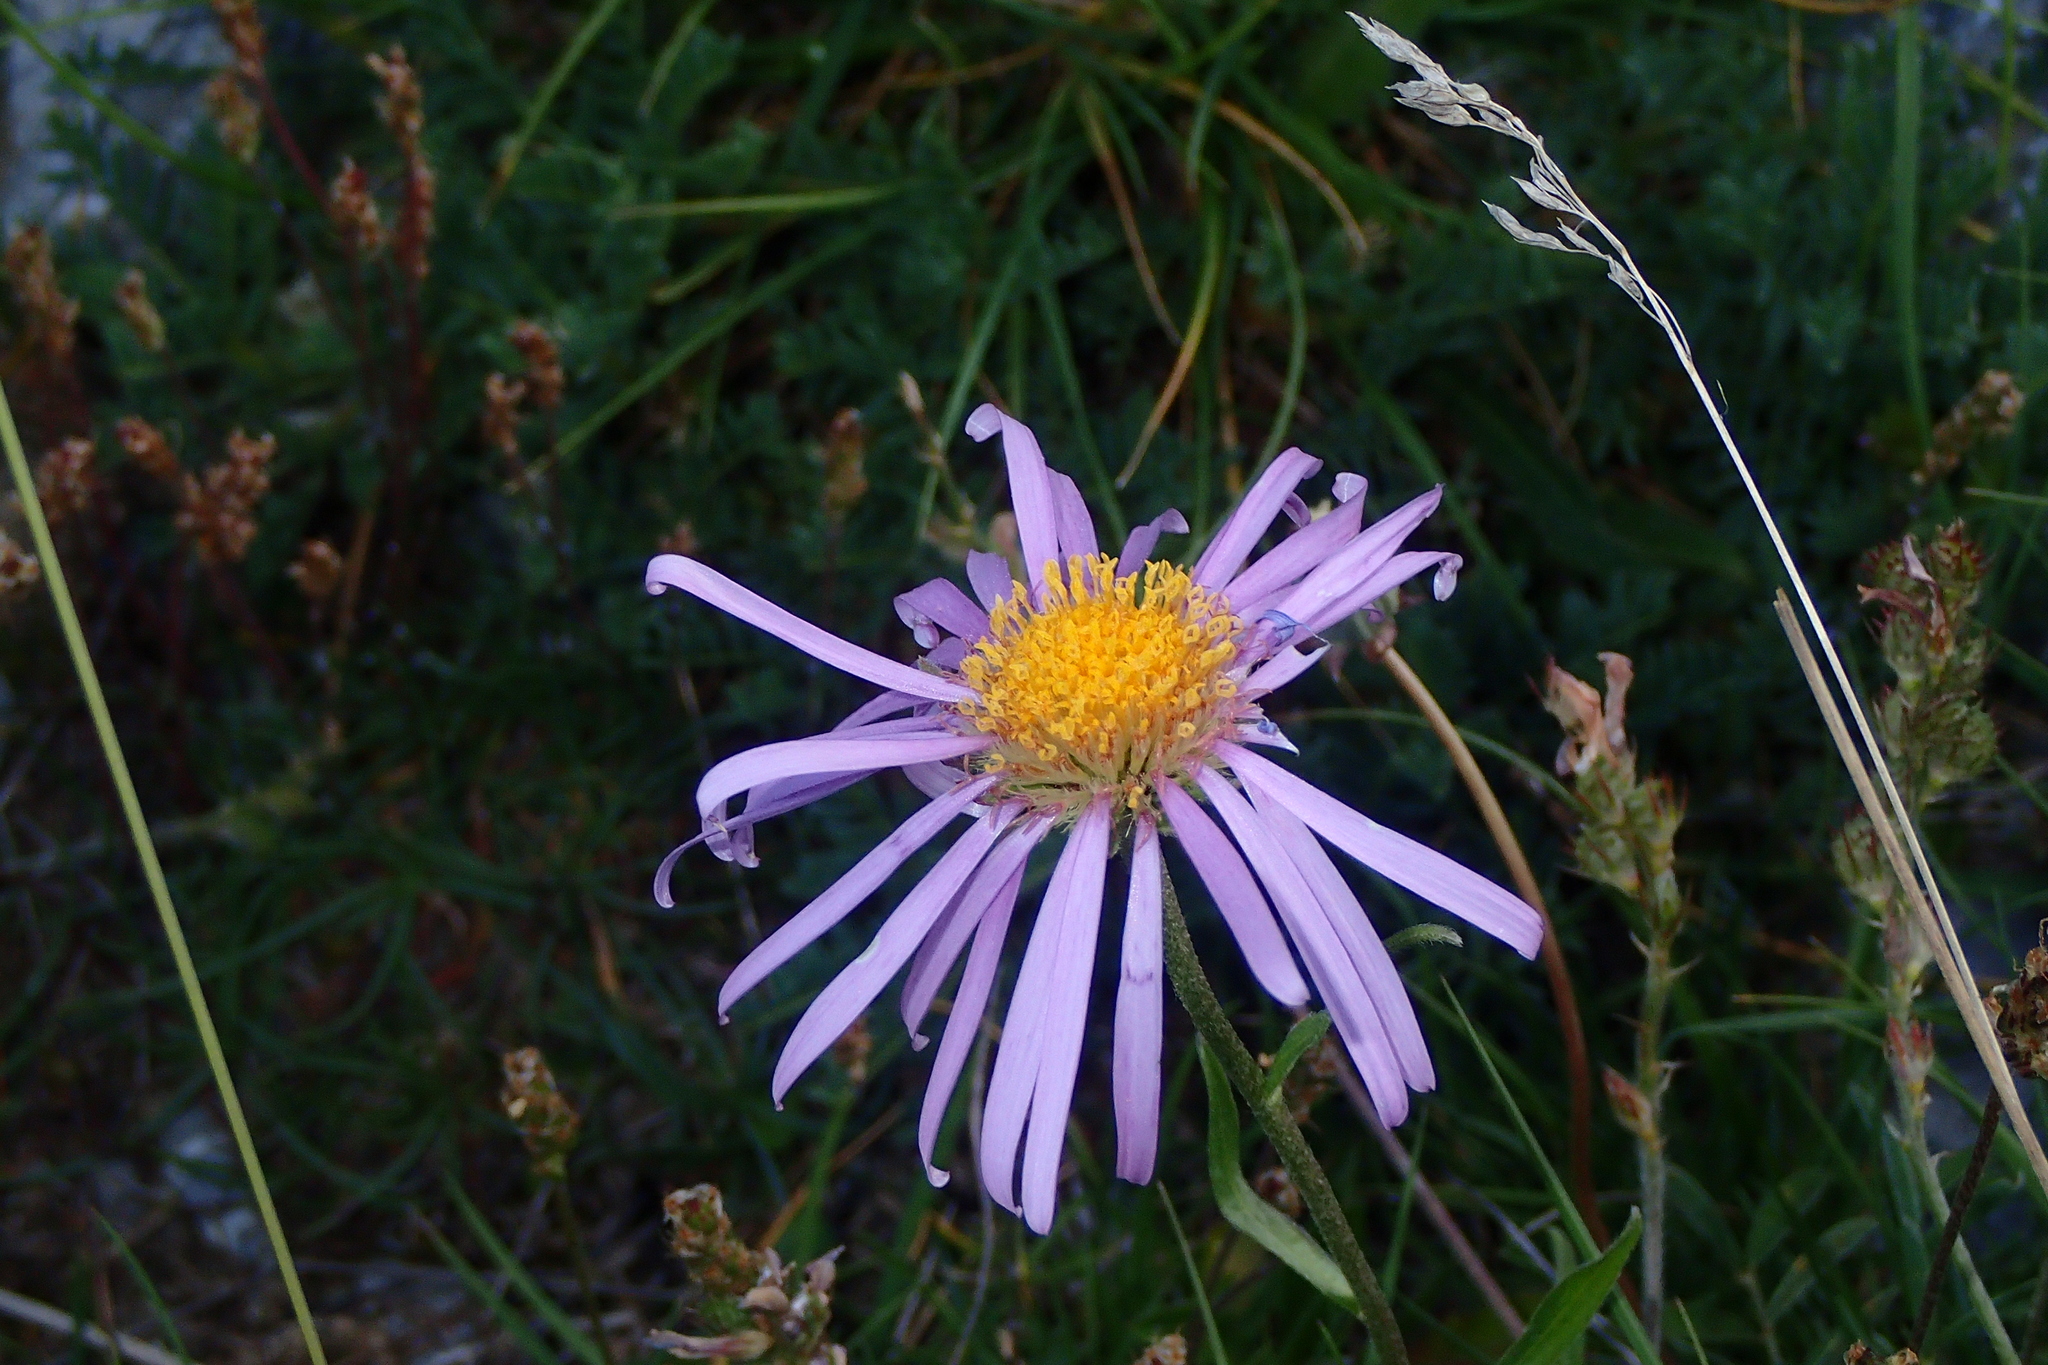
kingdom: Plantae
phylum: Tracheophyta
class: Magnoliopsida
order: Asterales
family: Asteraceae
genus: Aster
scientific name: Aster alpinus
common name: Alpine aster
